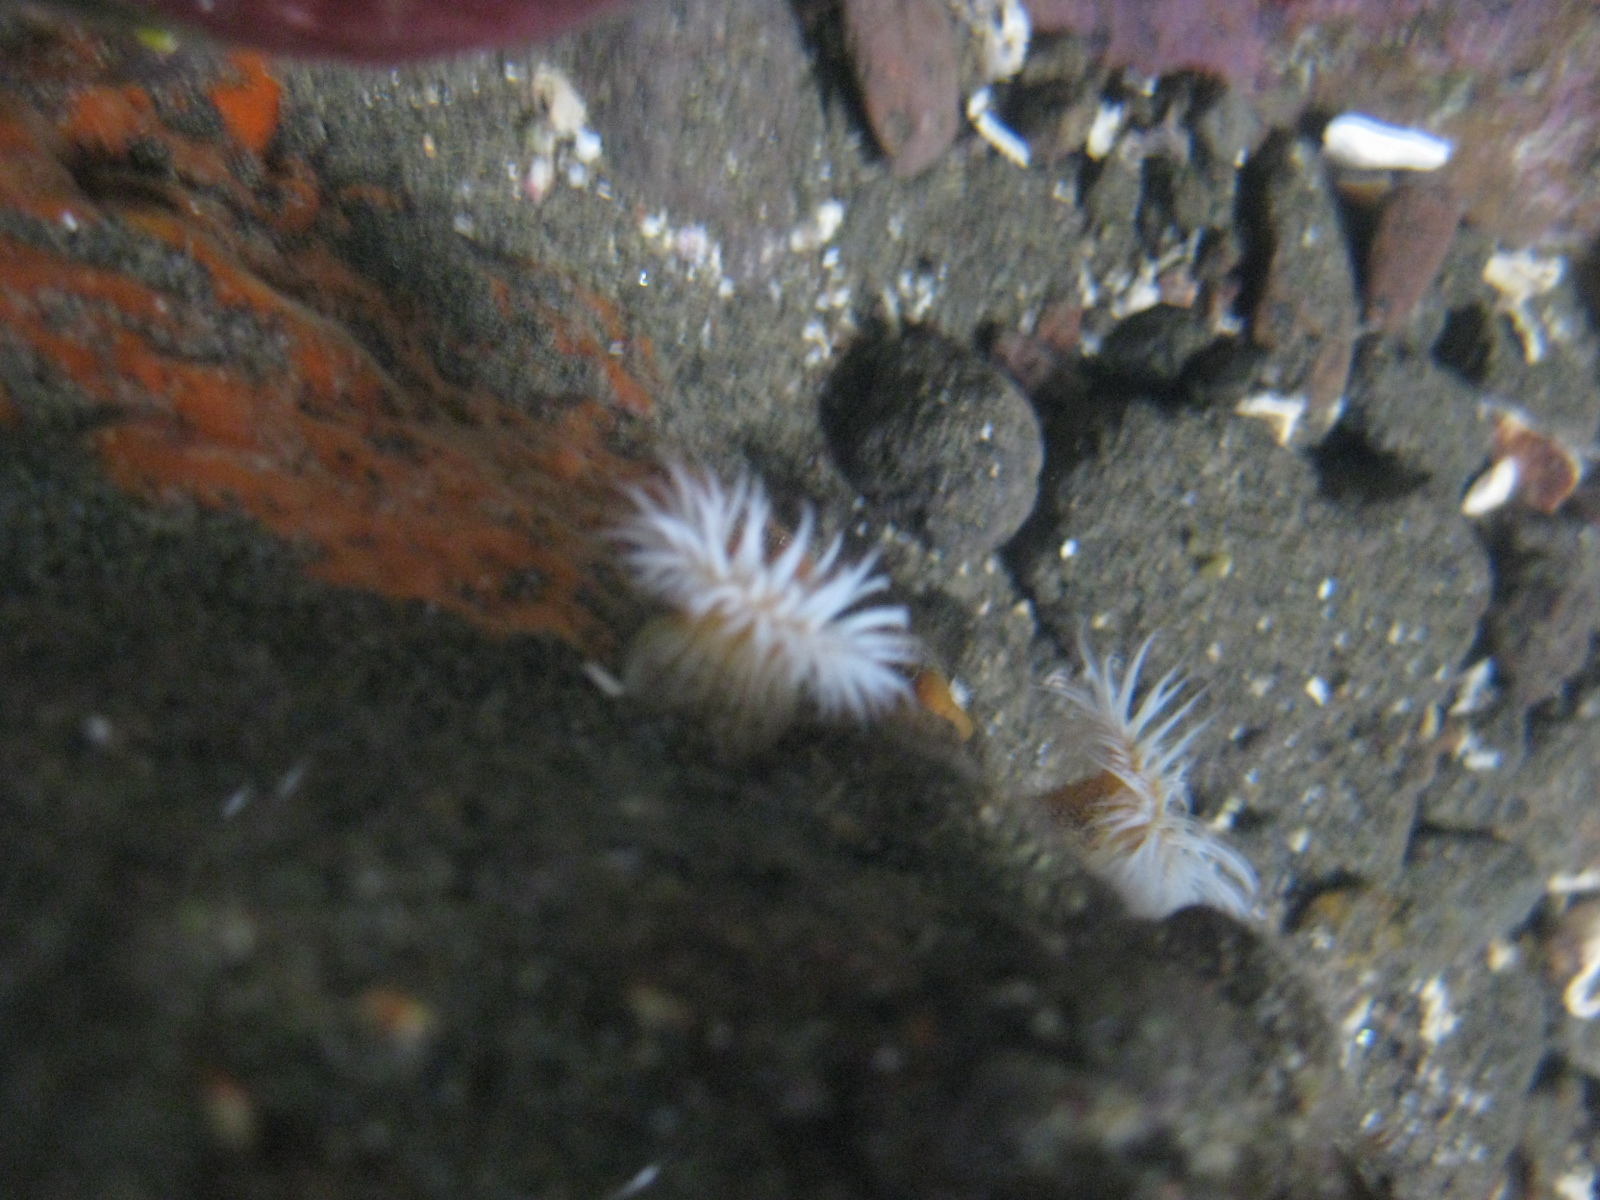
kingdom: Animalia
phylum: Cnidaria
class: Anthozoa
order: Actiniaria
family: Sagartiidae
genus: Anthothoe
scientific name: Anthothoe albocincta
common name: Orange striped anemone
